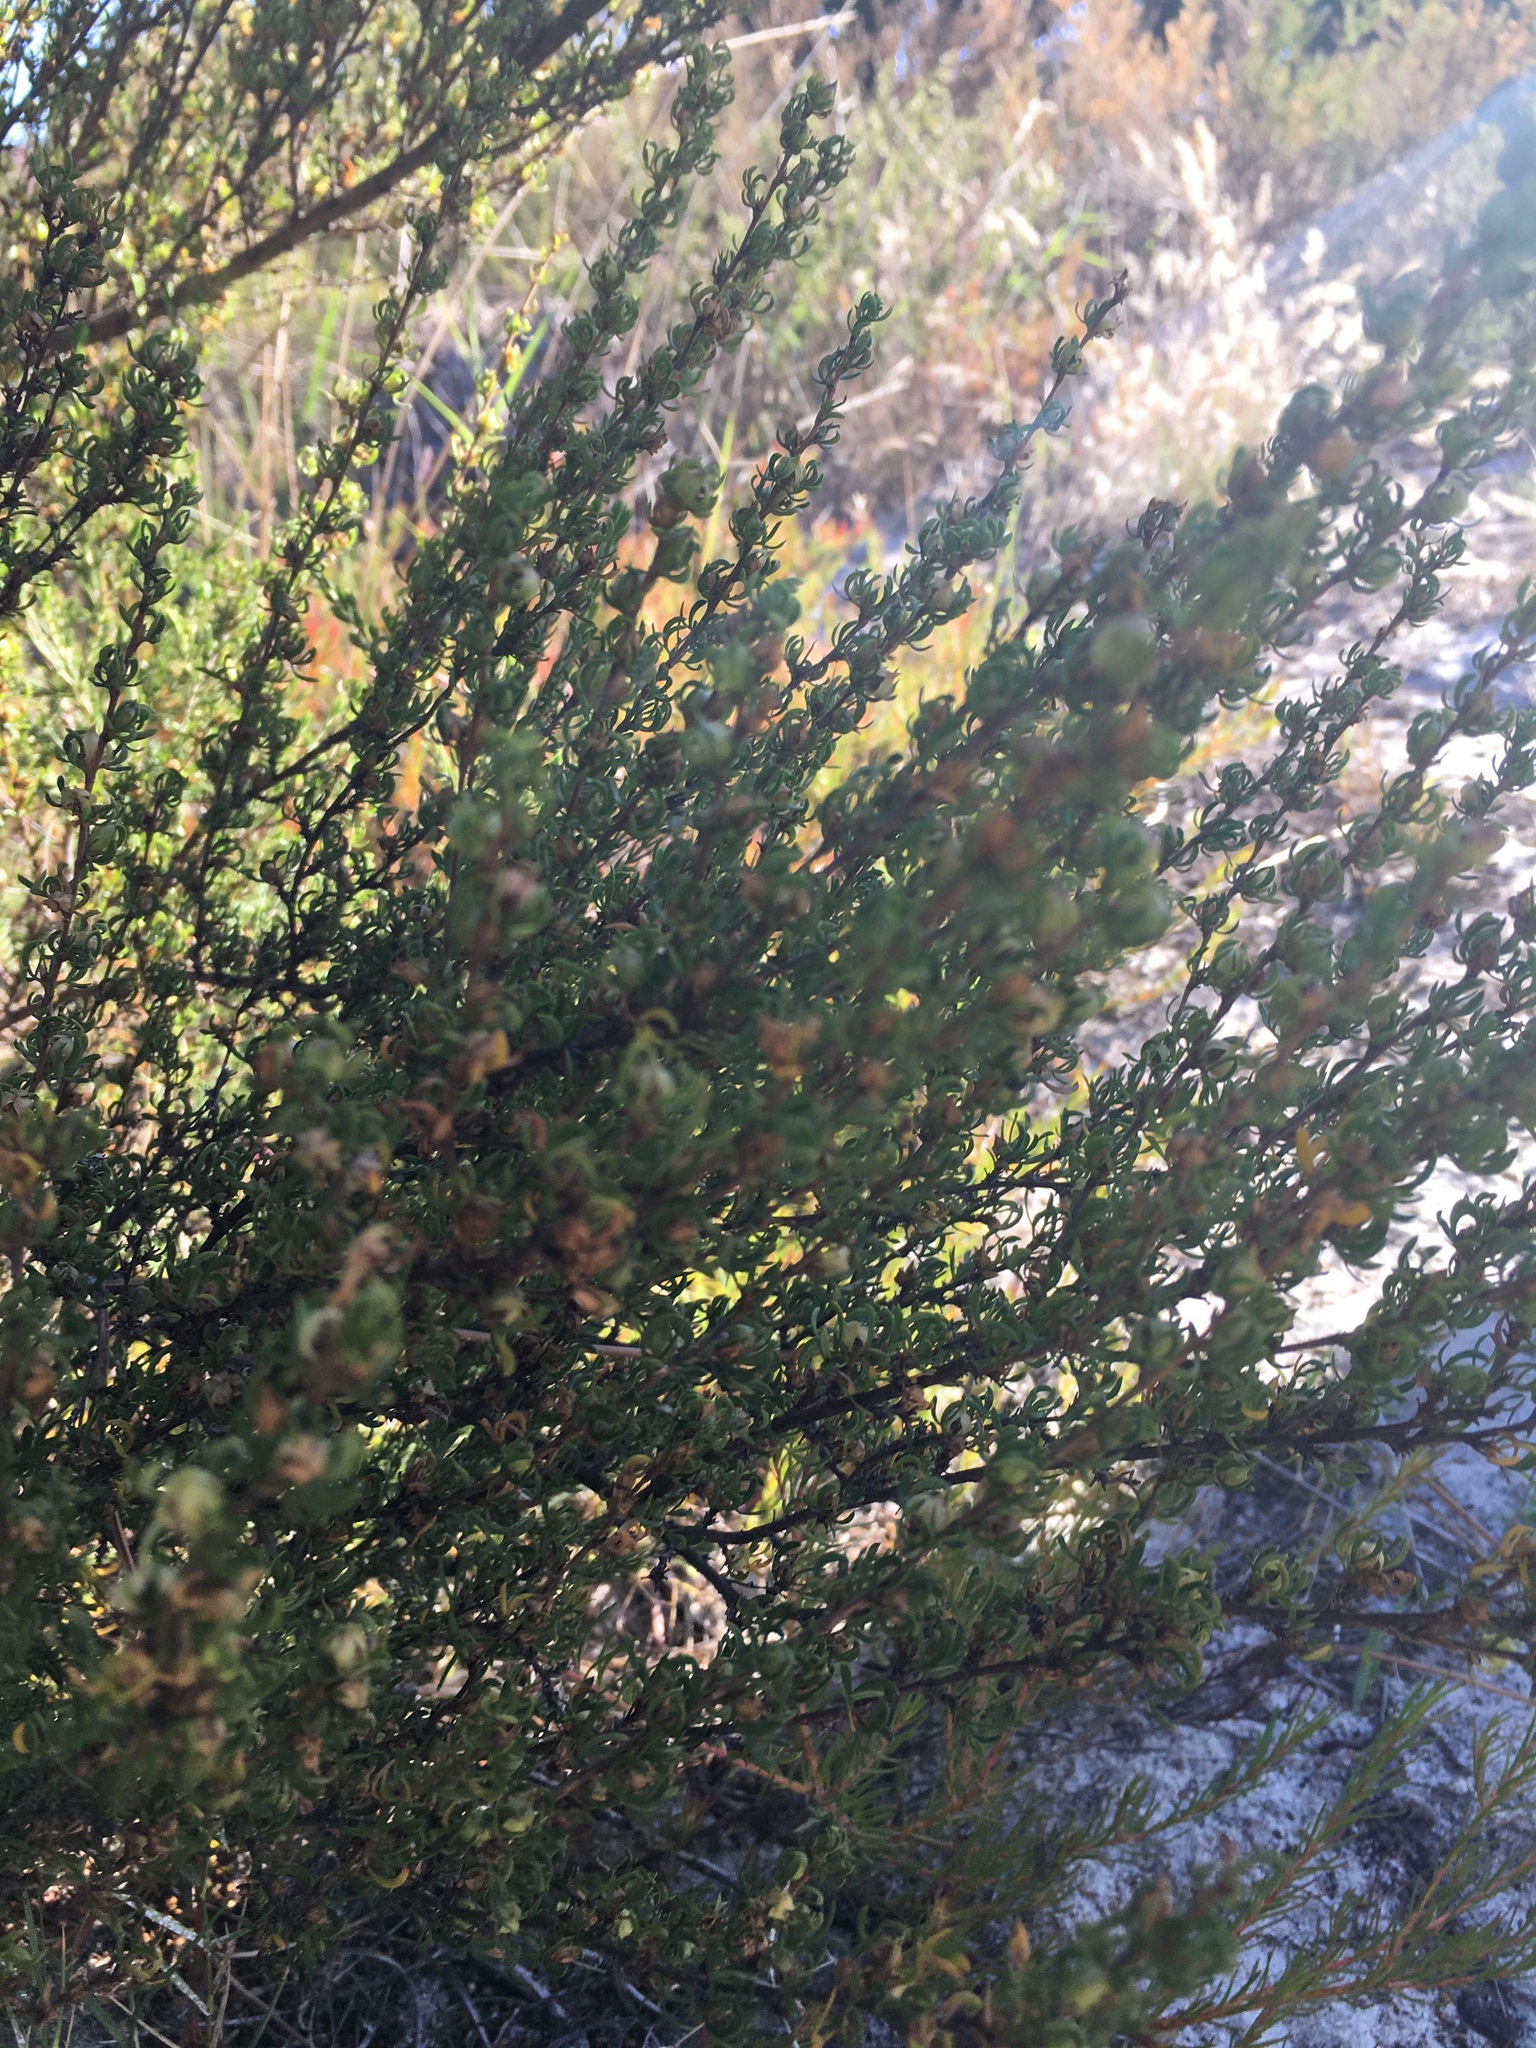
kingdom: Plantae
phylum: Tracheophyta
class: Magnoliopsida
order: Rosales
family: Rosaceae
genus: Cliffortia
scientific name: Cliffortia falcata
